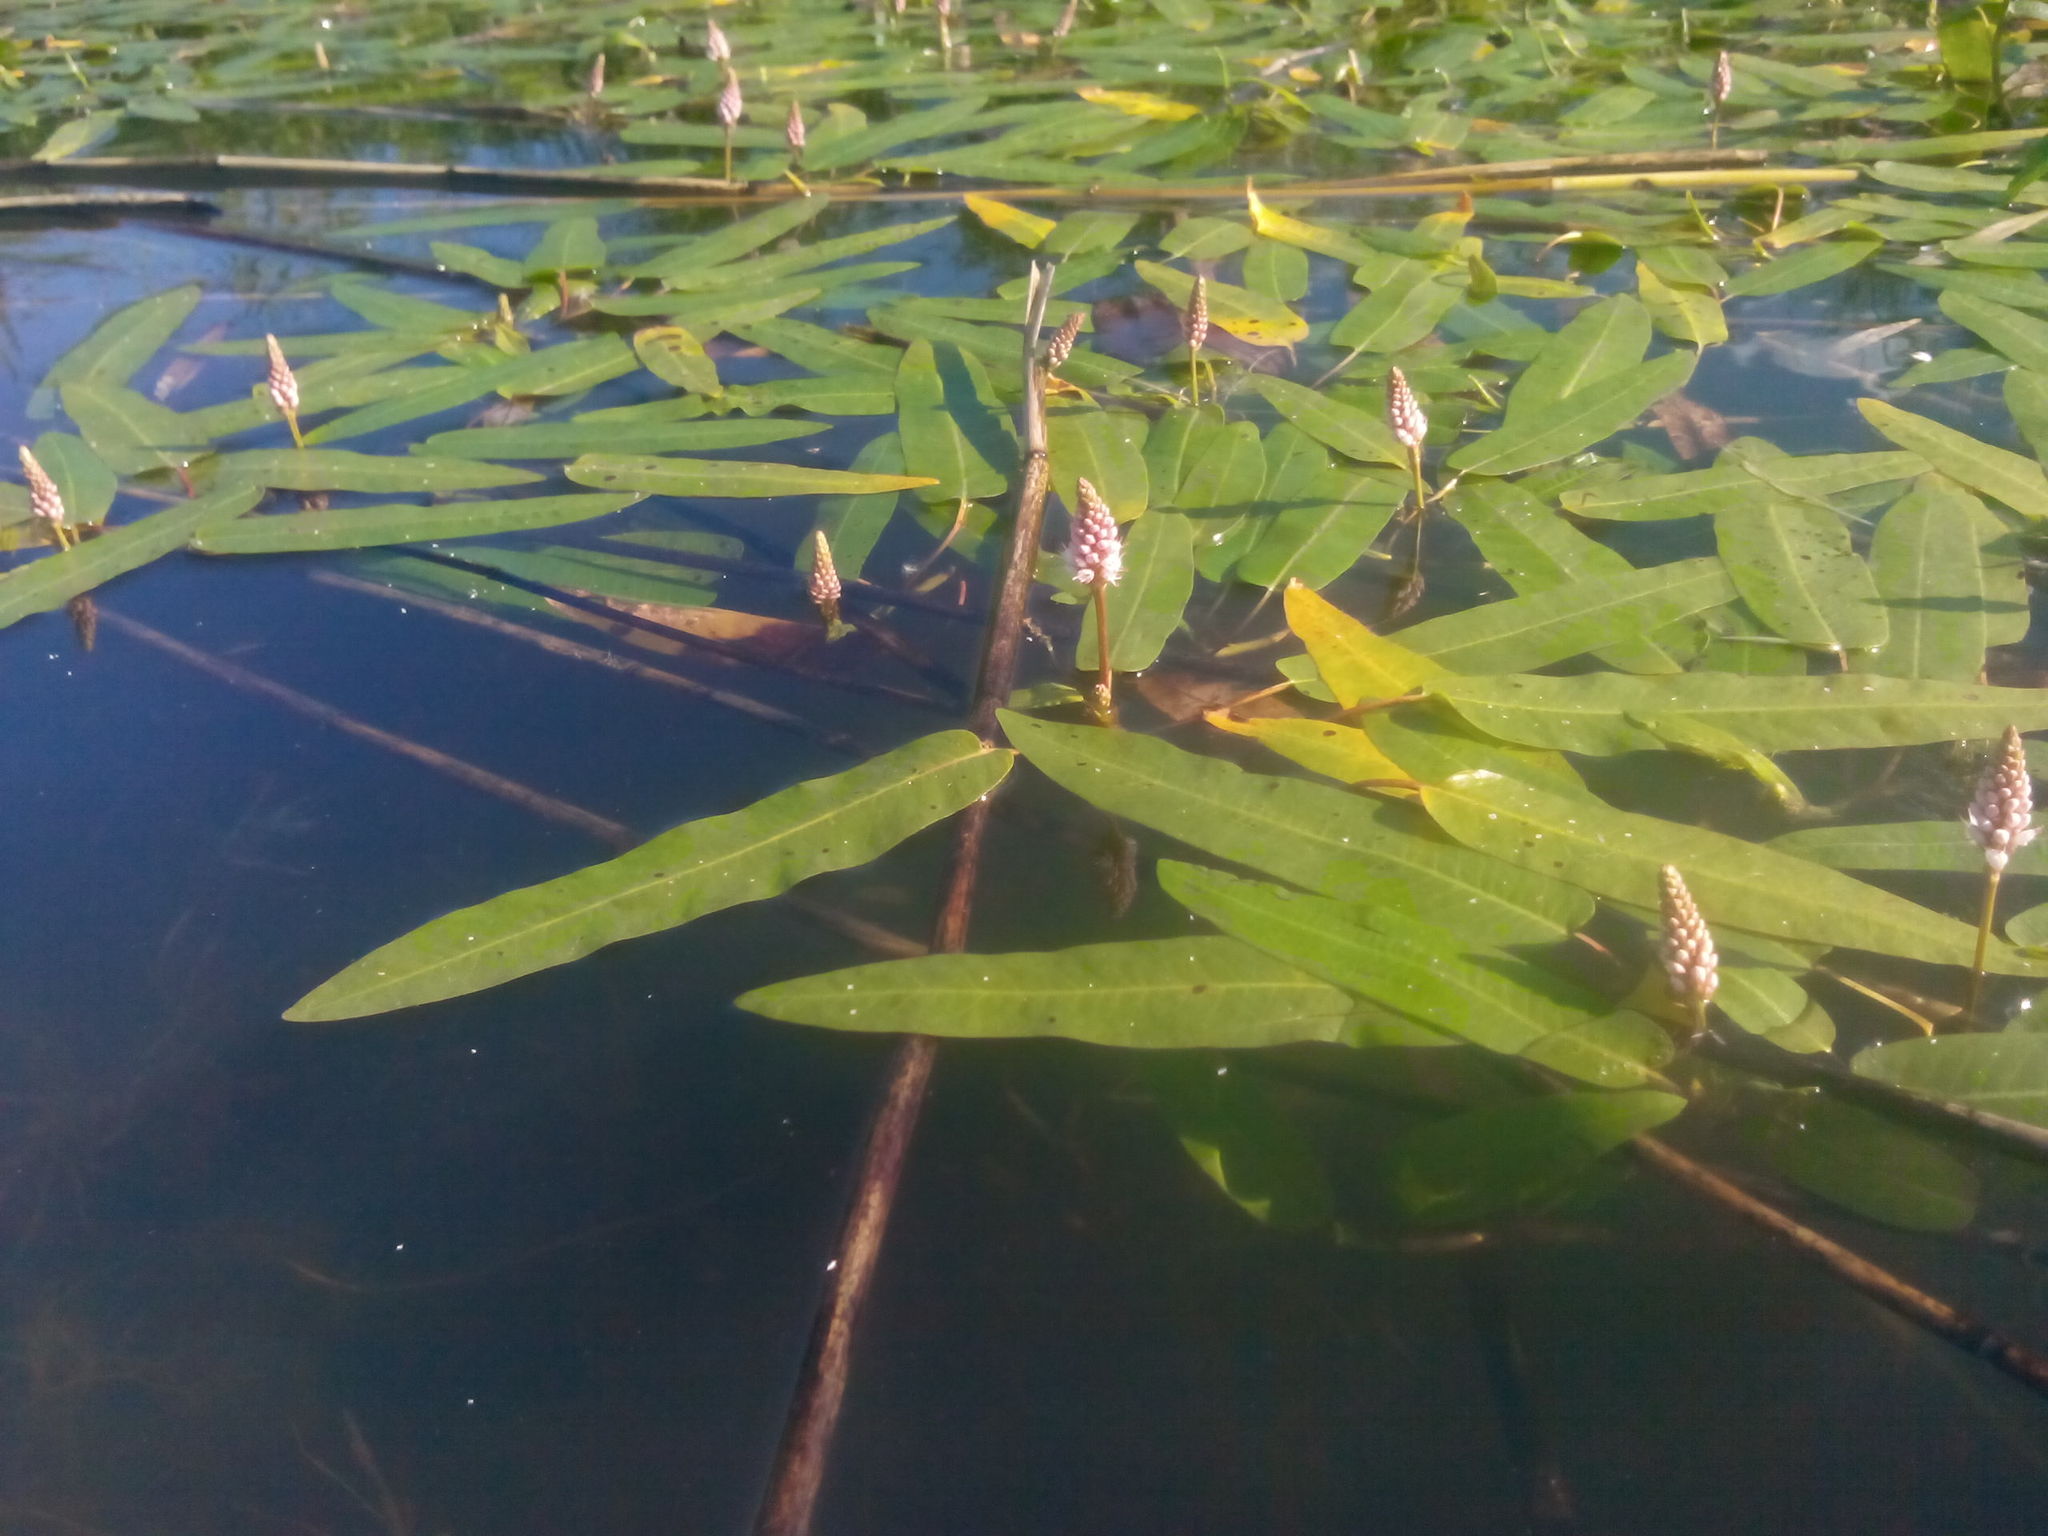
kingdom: Plantae
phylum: Tracheophyta
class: Magnoliopsida
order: Caryophyllales
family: Polygonaceae
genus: Persicaria
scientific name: Persicaria amphibia
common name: Amphibious bistort
